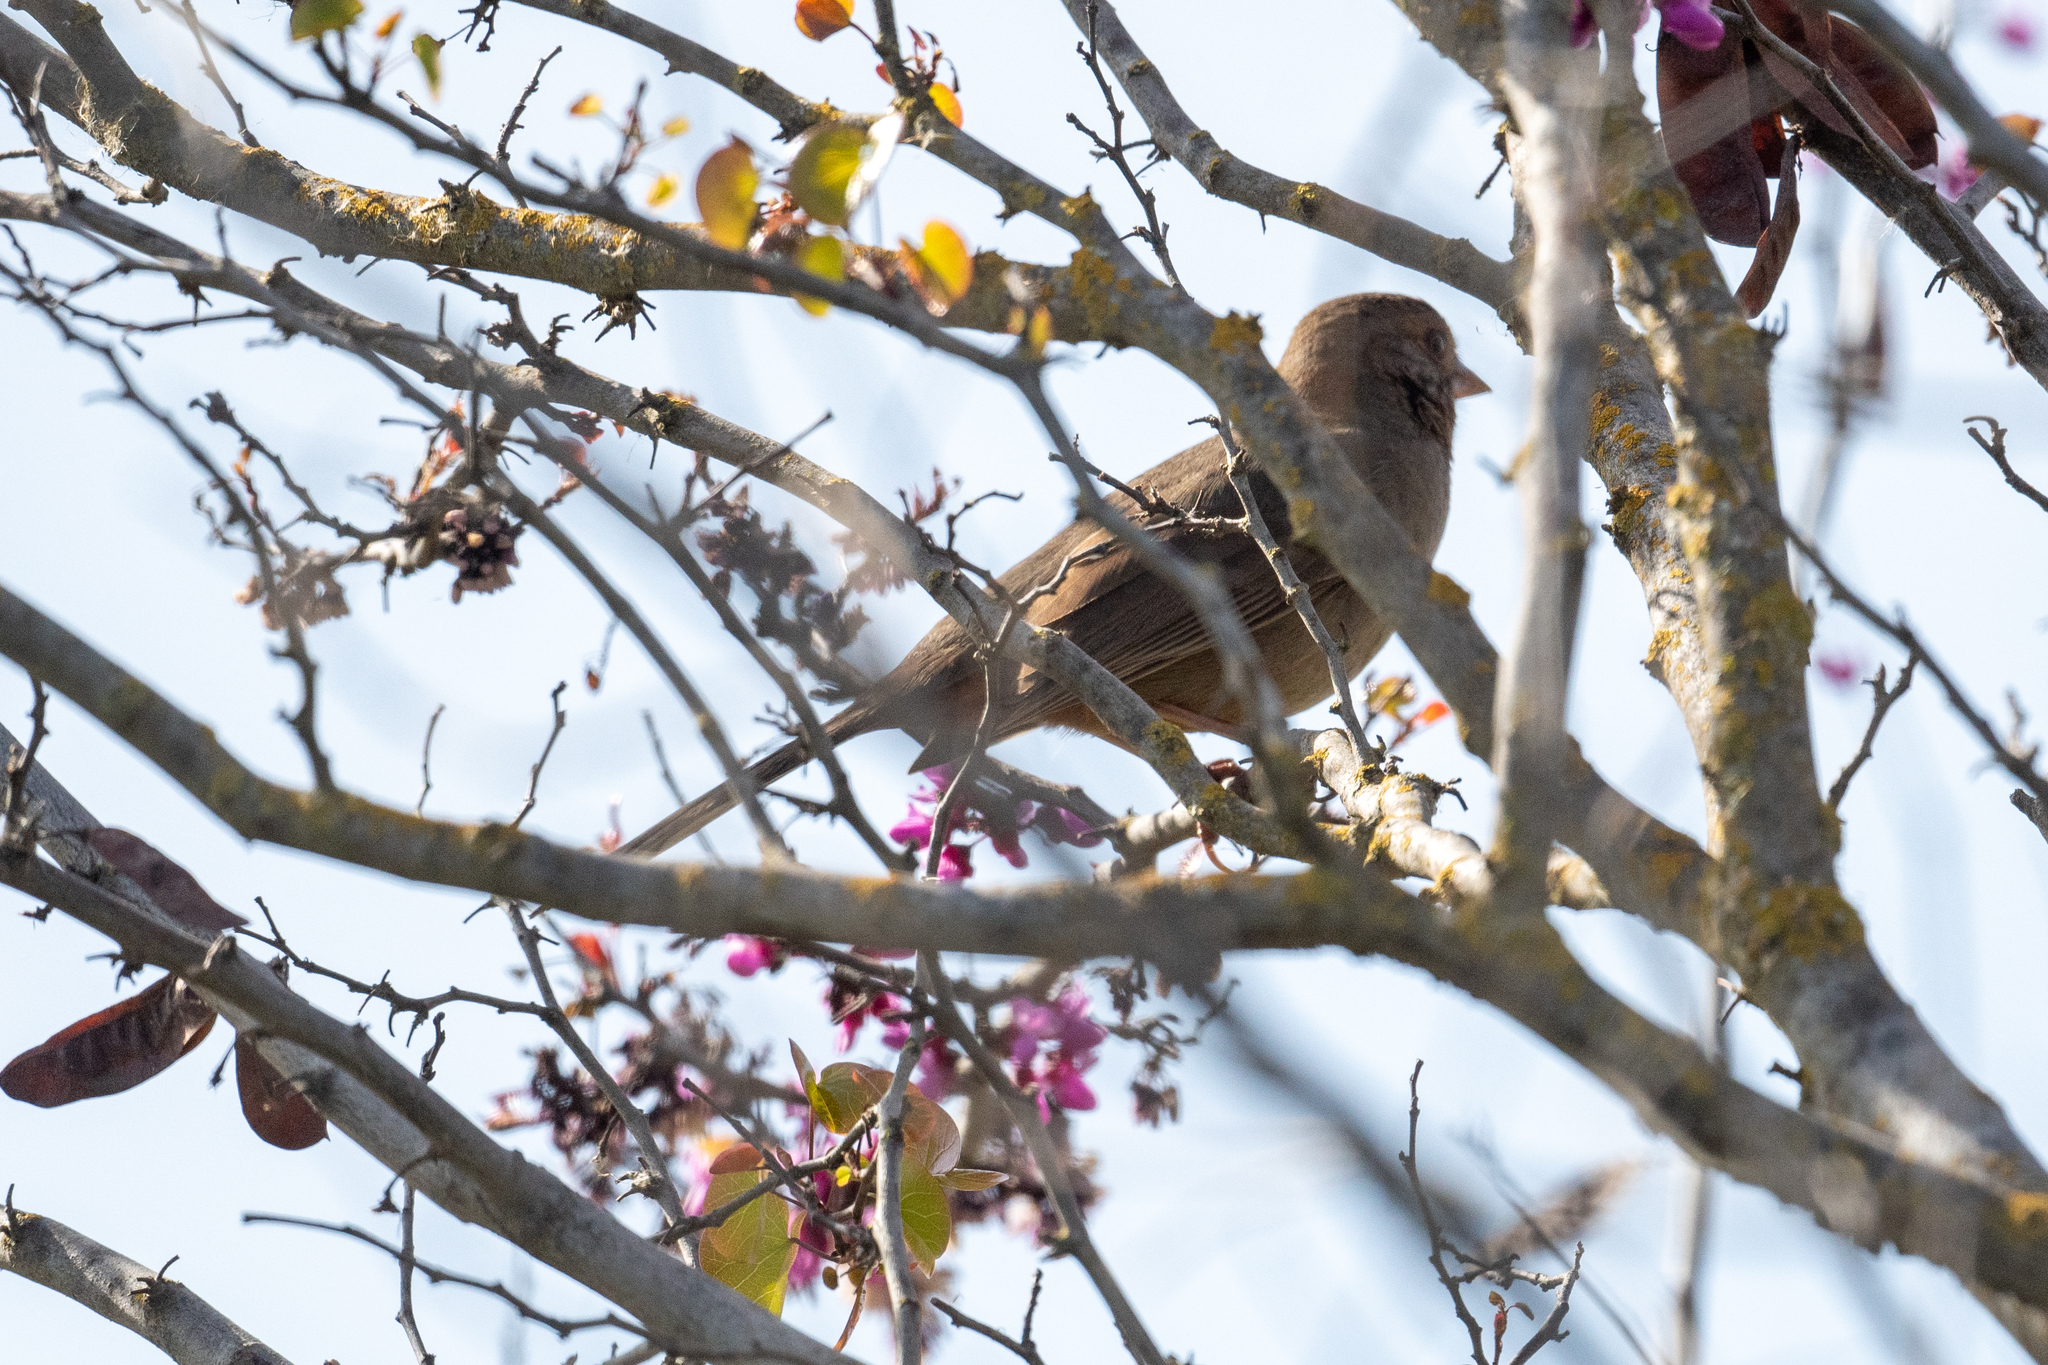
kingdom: Animalia
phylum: Chordata
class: Aves
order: Passeriformes
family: Passerellidae
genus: Melozone
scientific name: Melozone crissalis
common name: California towhee
